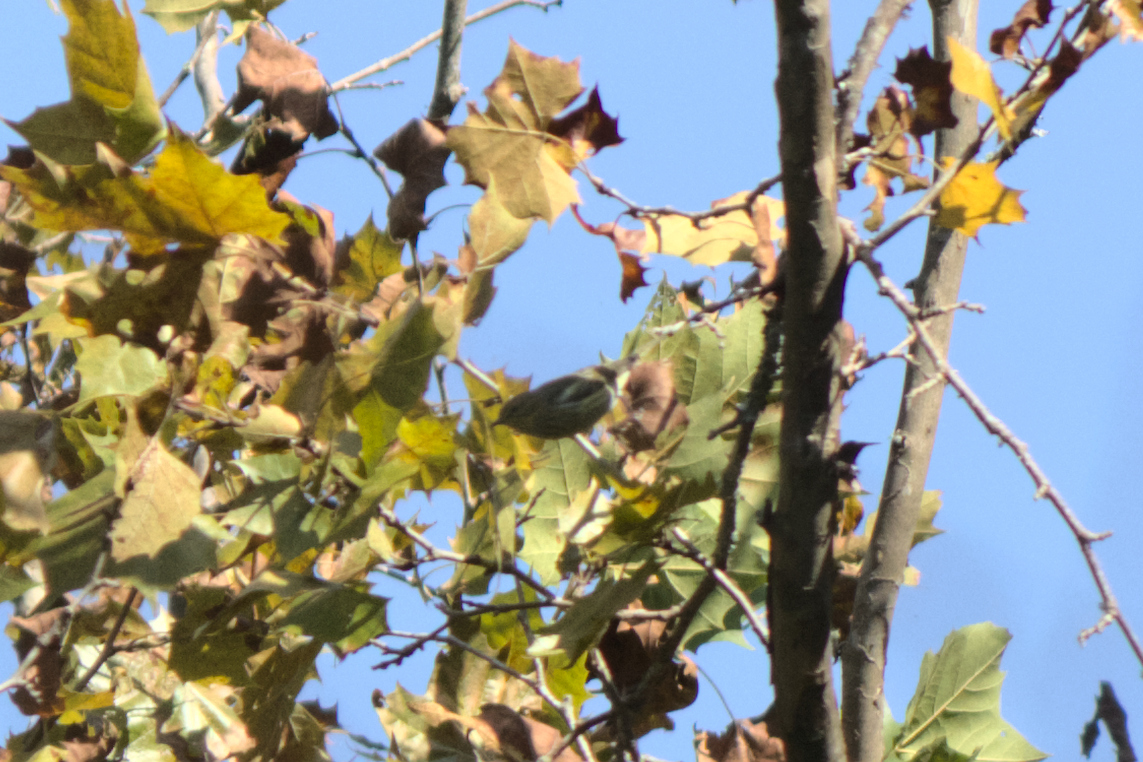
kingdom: Animalia
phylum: Chordata
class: Aves
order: Passeriformes
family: Parulidae
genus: Setophaga
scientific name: Setophaga tigrina
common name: Cape may warbler
